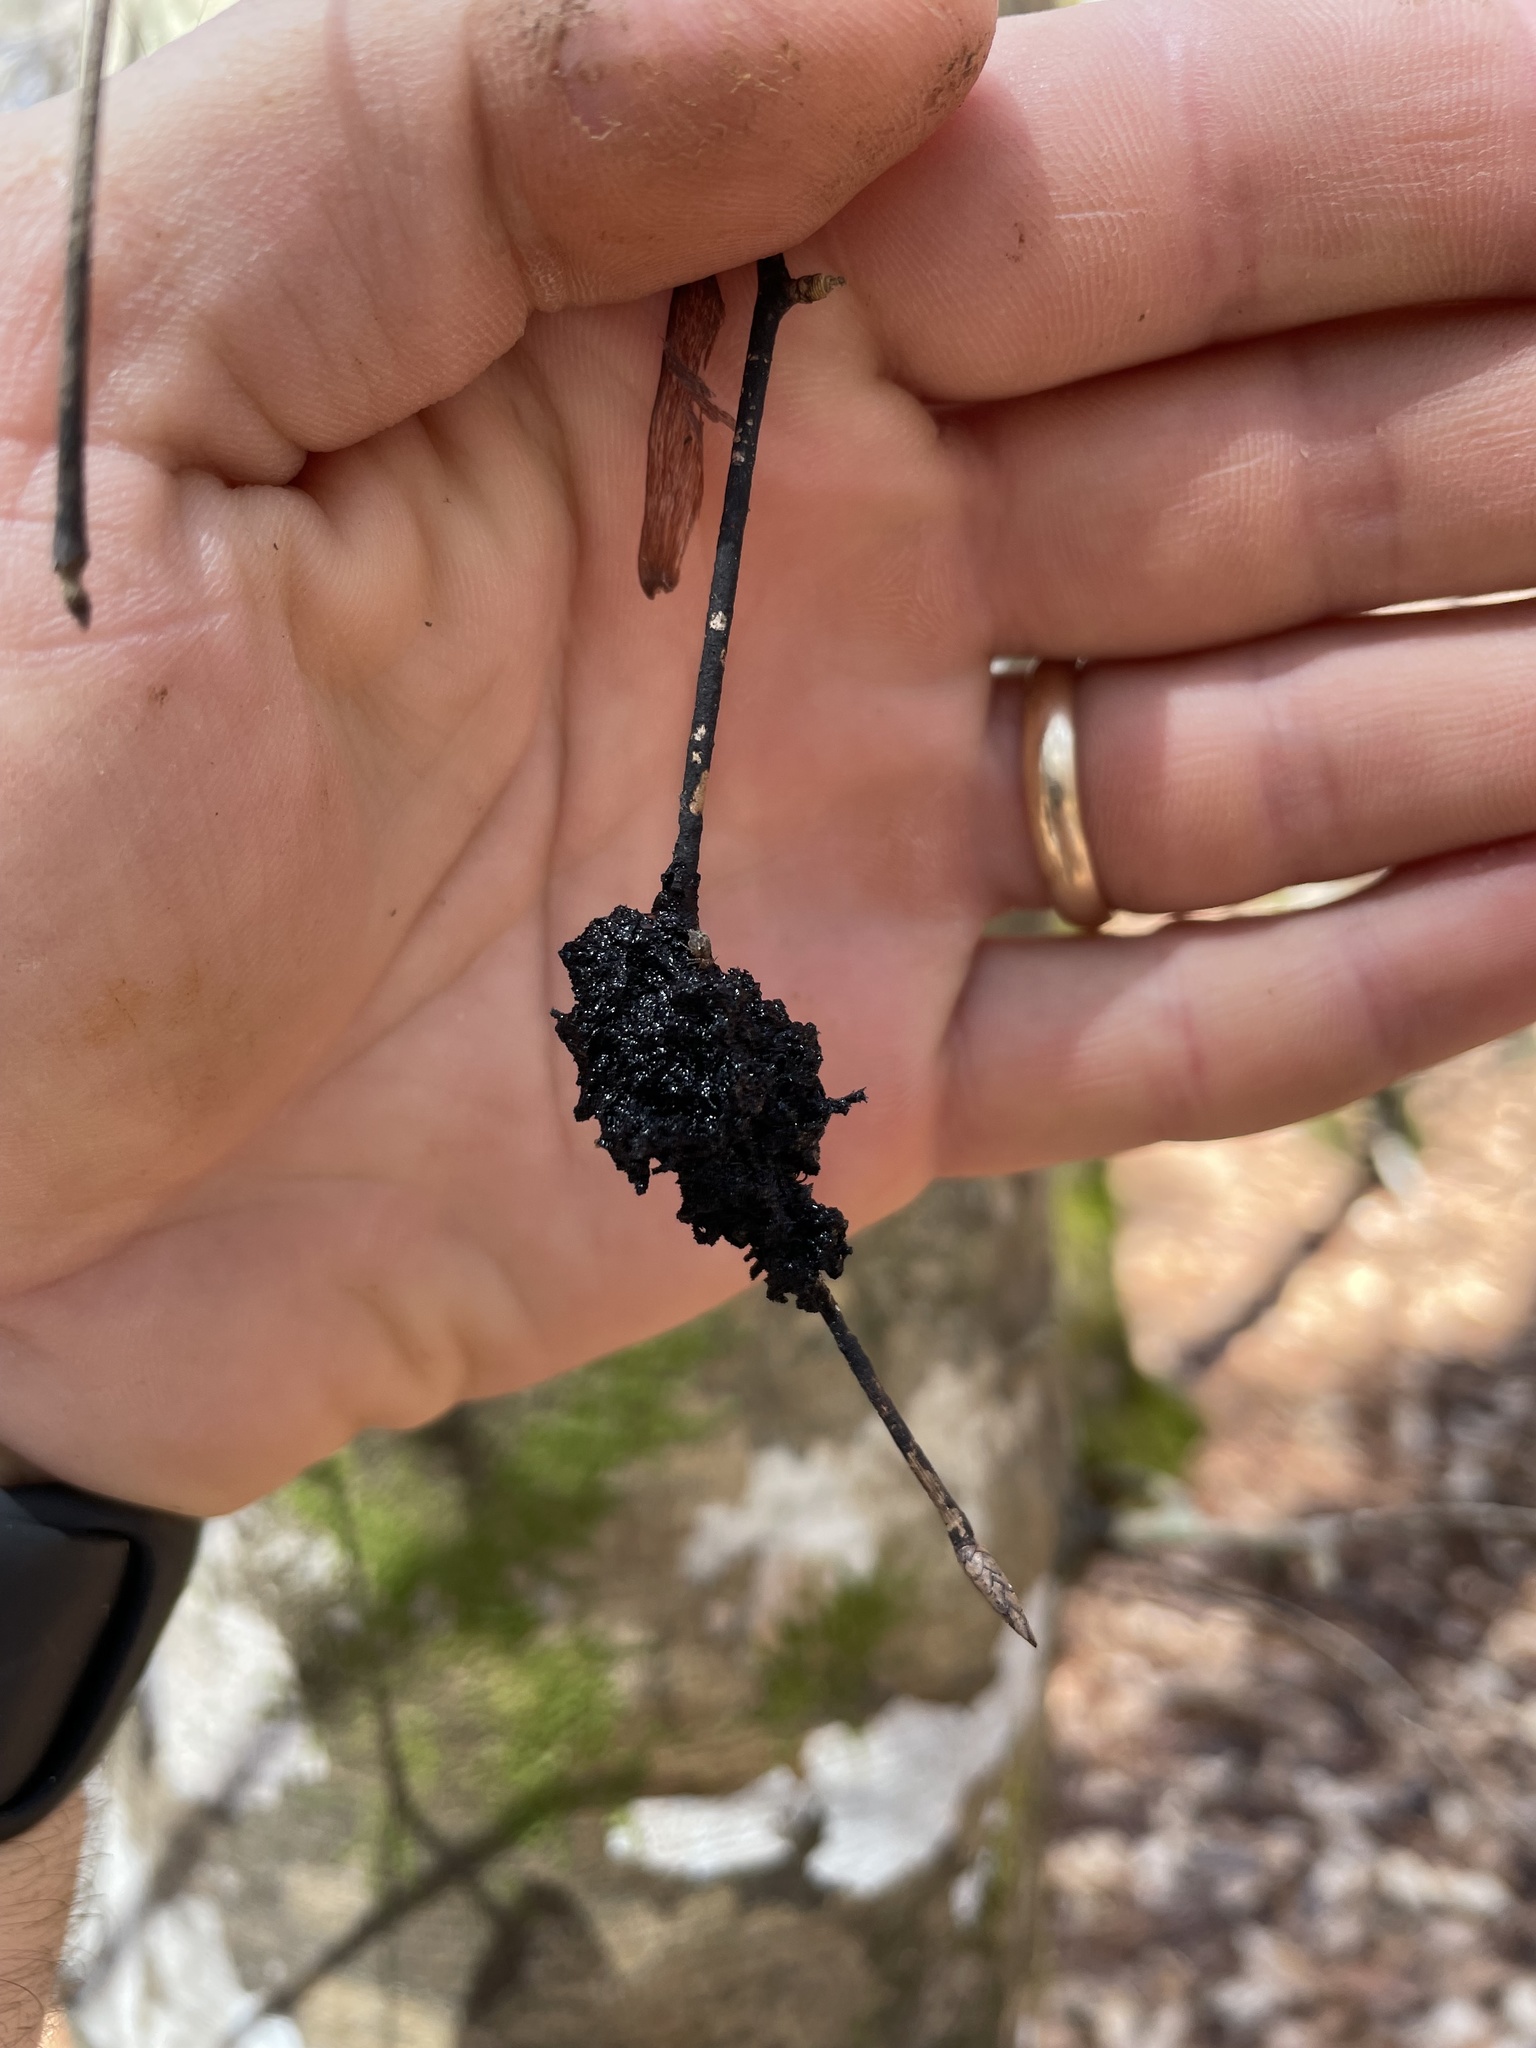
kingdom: Fungi
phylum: Ascomycota
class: Dothideomycetes
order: Capnodiales
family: Capnodiaceae
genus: Scorias
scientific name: Scorias spongiosa
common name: Black sooty mold
